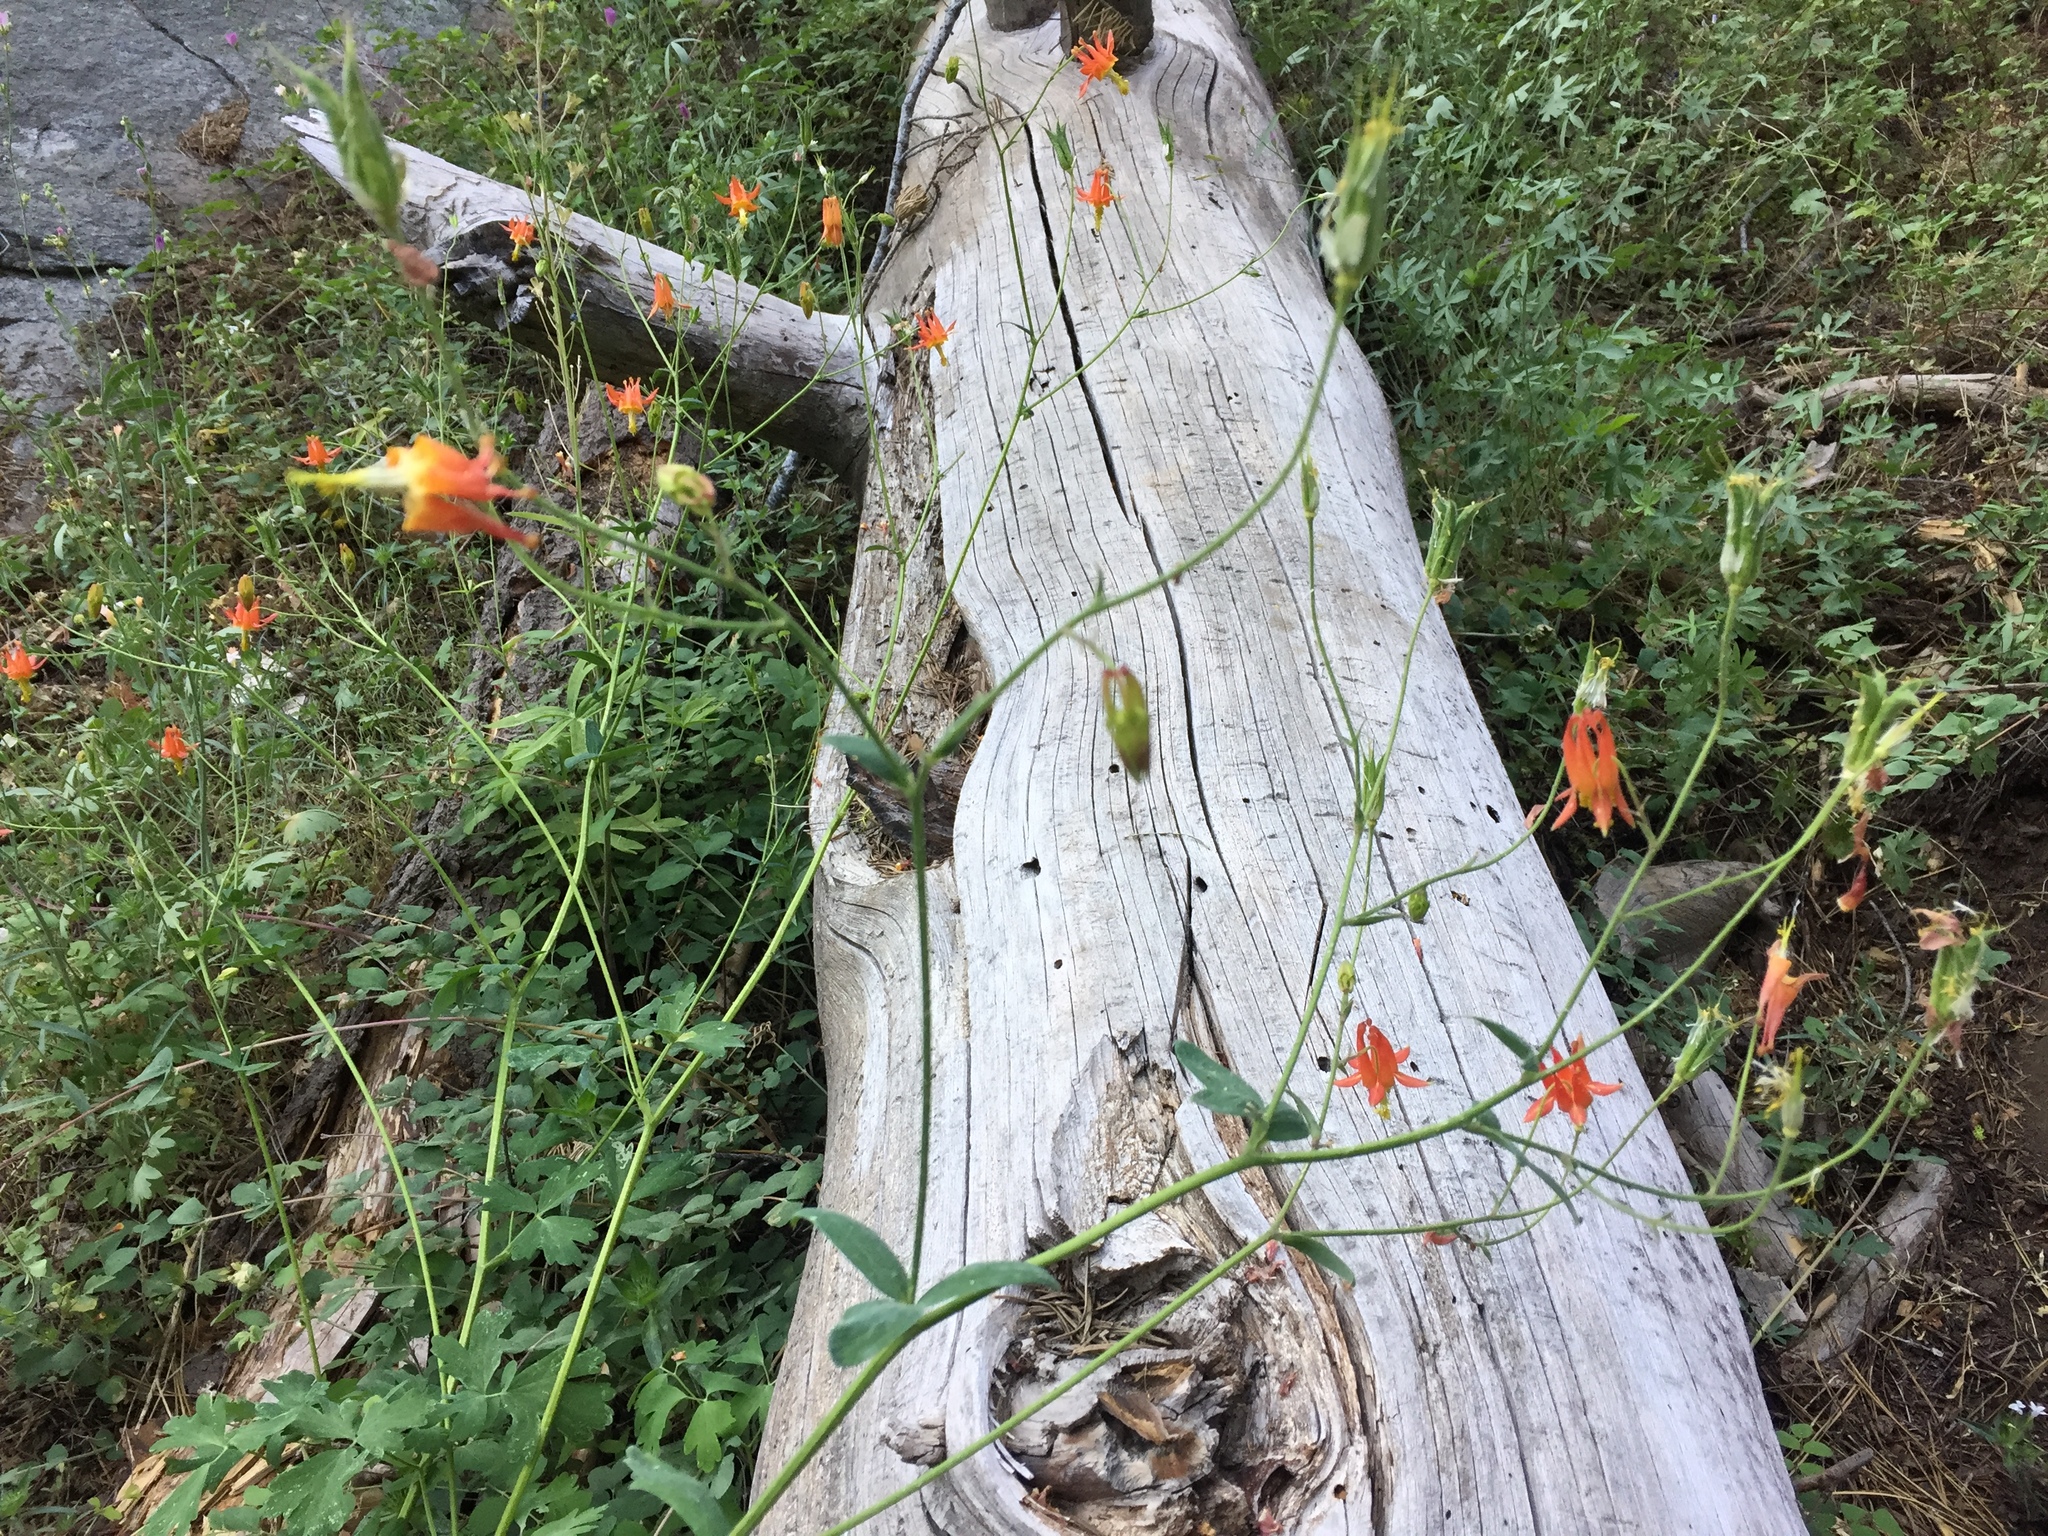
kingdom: Plantae
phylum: Tracheophyta
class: Magnoliopsida
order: Ranunculales
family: Ranunculaceae
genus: Aquilegia
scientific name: Aquilegia formosa
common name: Sitka columbine
